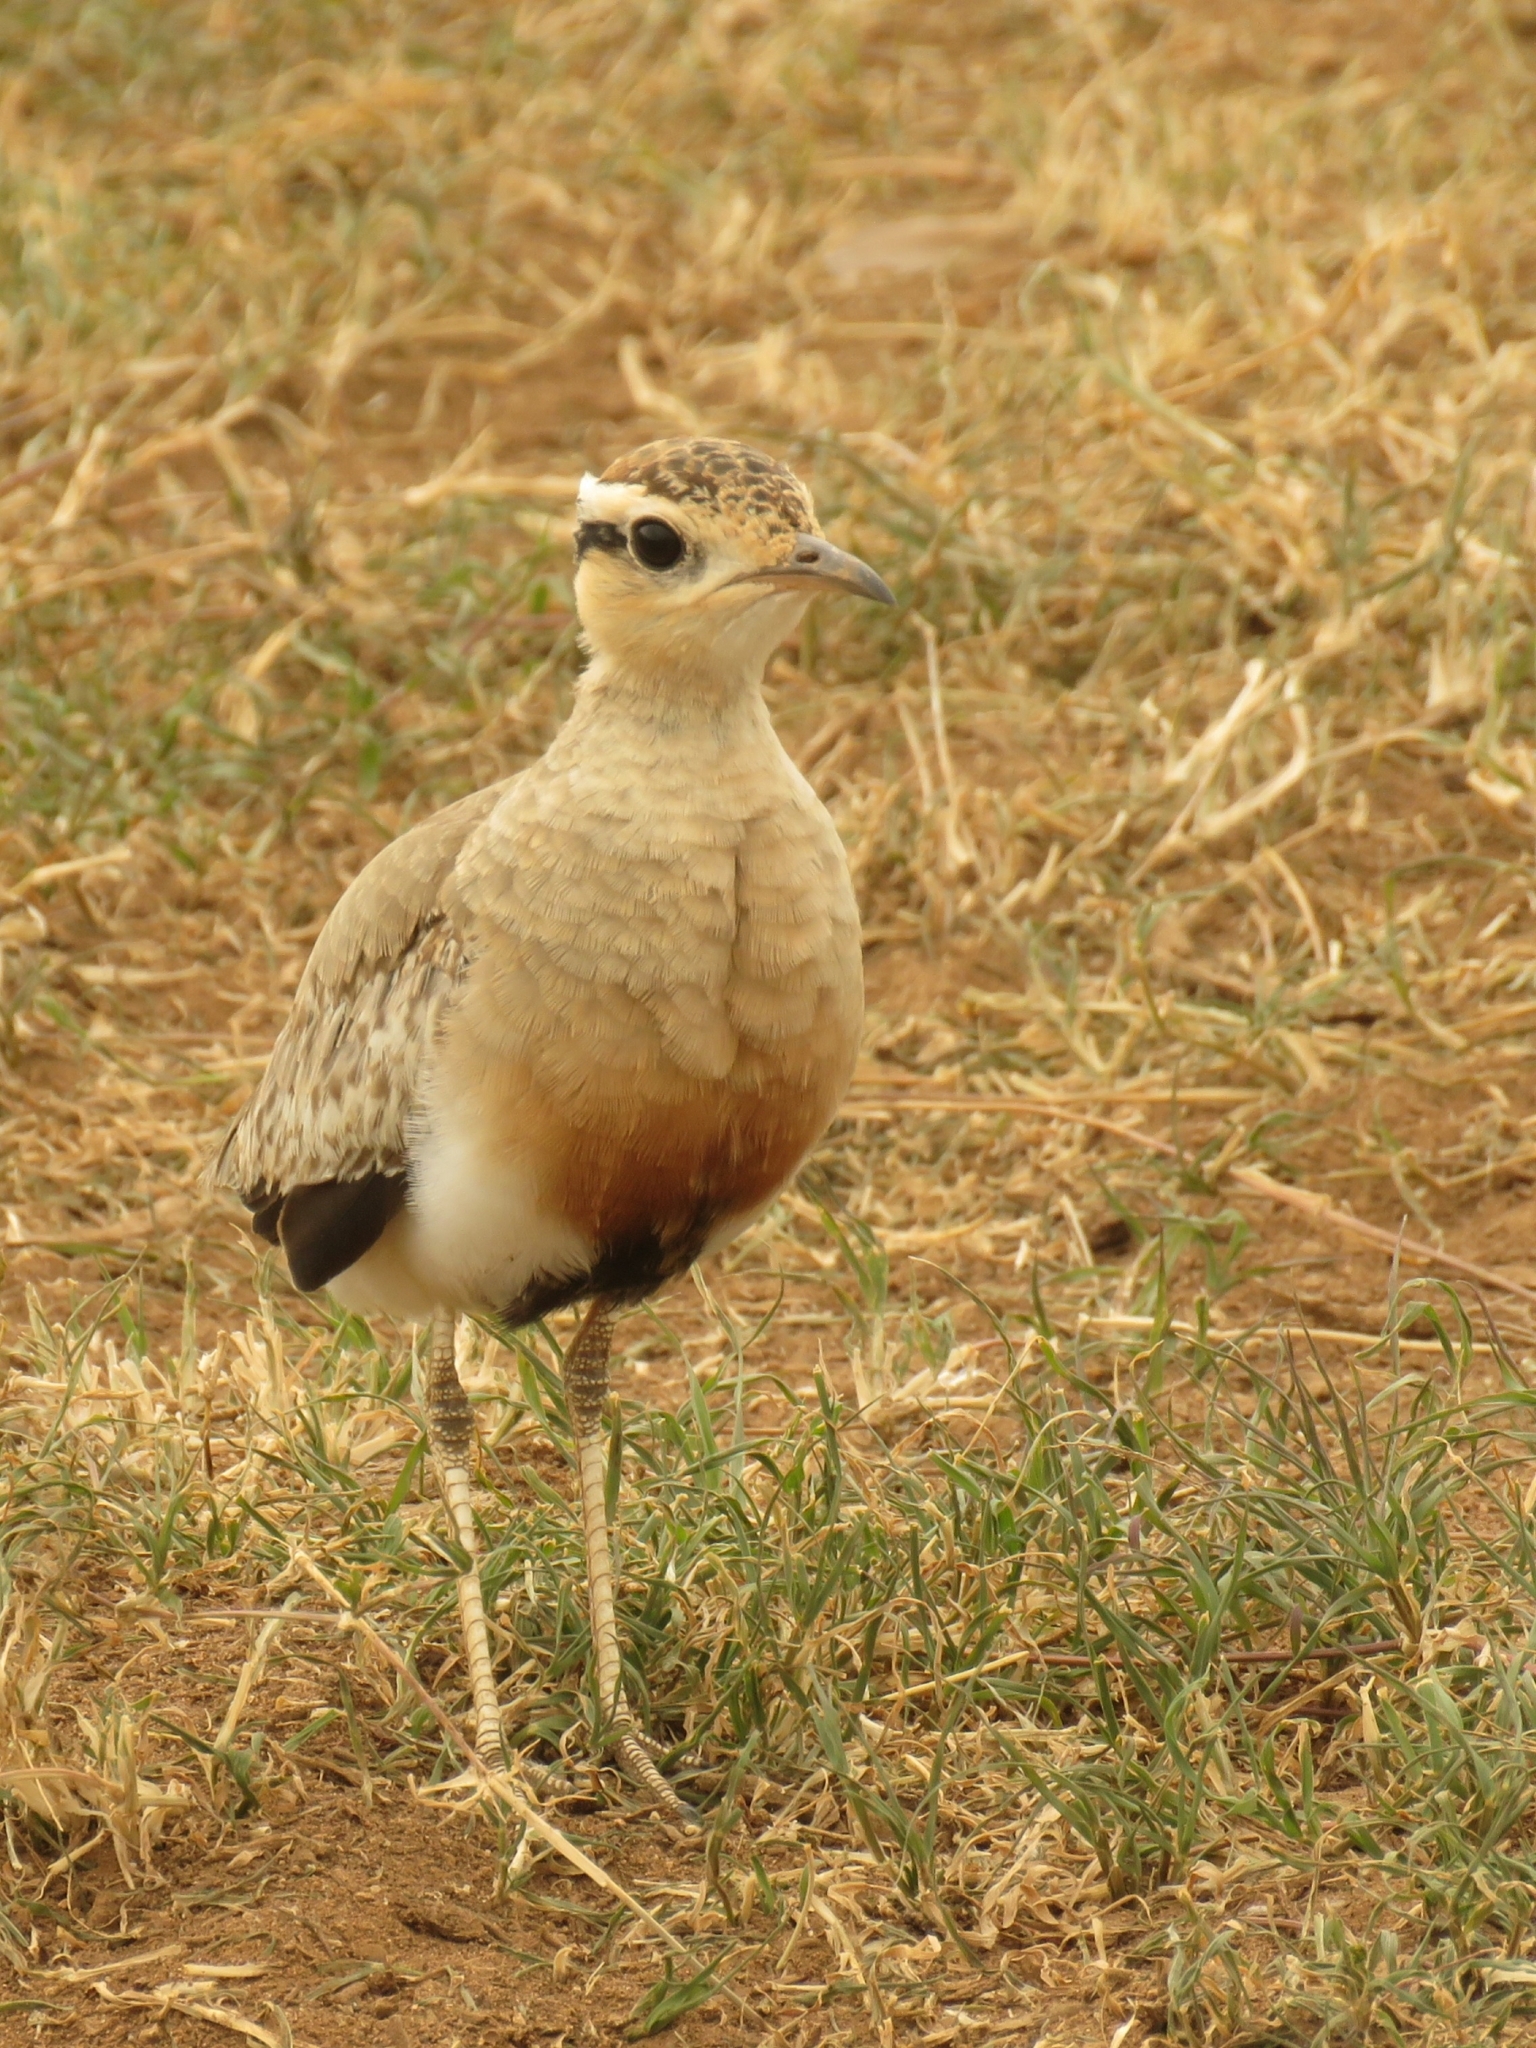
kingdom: Animalia
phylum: Chordata
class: Aves
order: Charadriiformes
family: Glareolidae
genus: Cursorius
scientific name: Cursorius temminckii
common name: Temminck's courser
